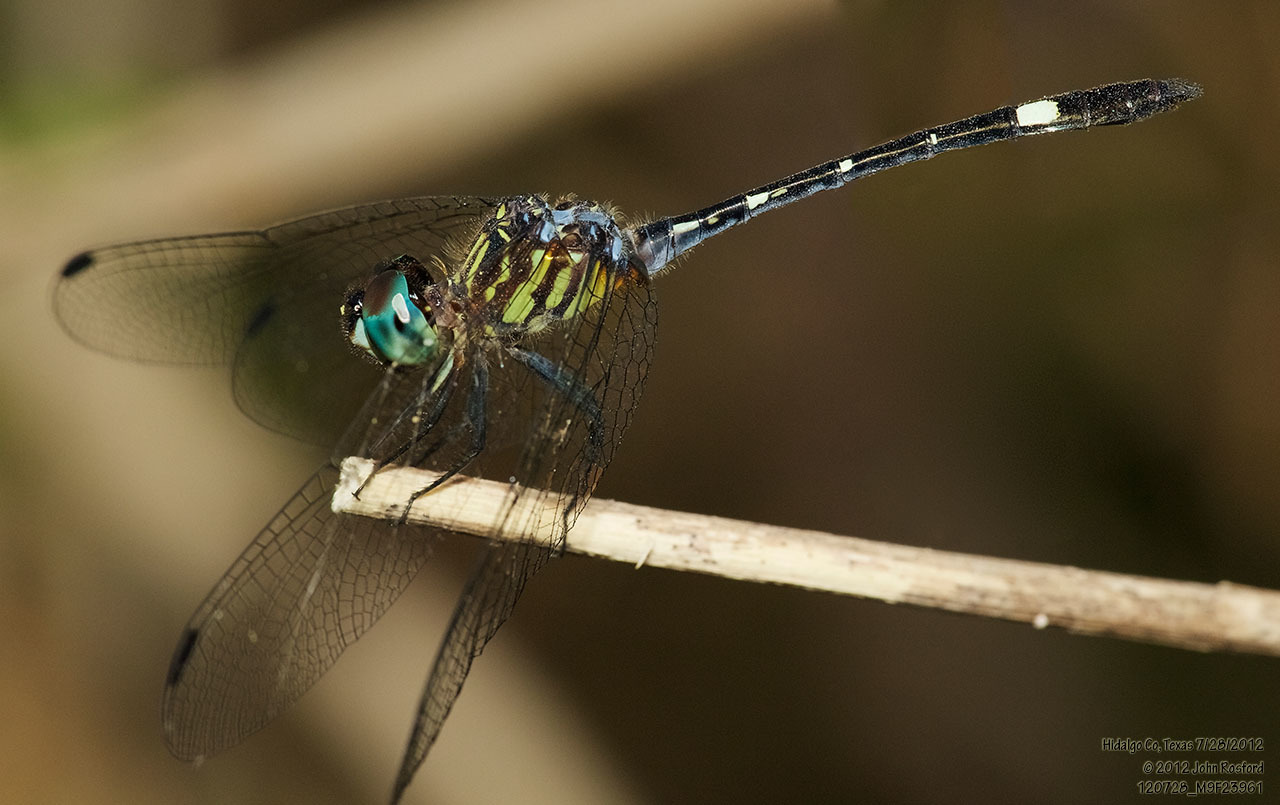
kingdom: Animalia
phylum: Arthropoda
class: Insecta
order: Odonata
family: Libellulidae
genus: Micrathyria
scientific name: Micrathyria didyma
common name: Three-striped dasher
